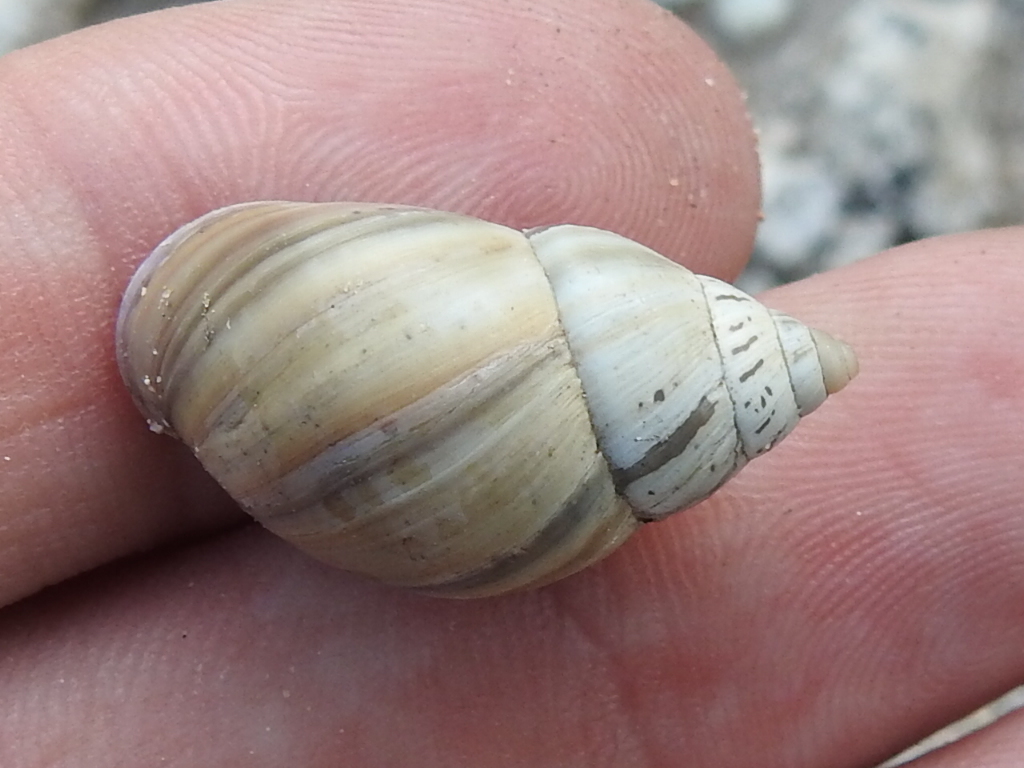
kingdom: Animalia
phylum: Mollusca
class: Gastropoda
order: Stylommatophora
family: Bulimulidae
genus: Rabdotus
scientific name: Rabdotus alternatus
